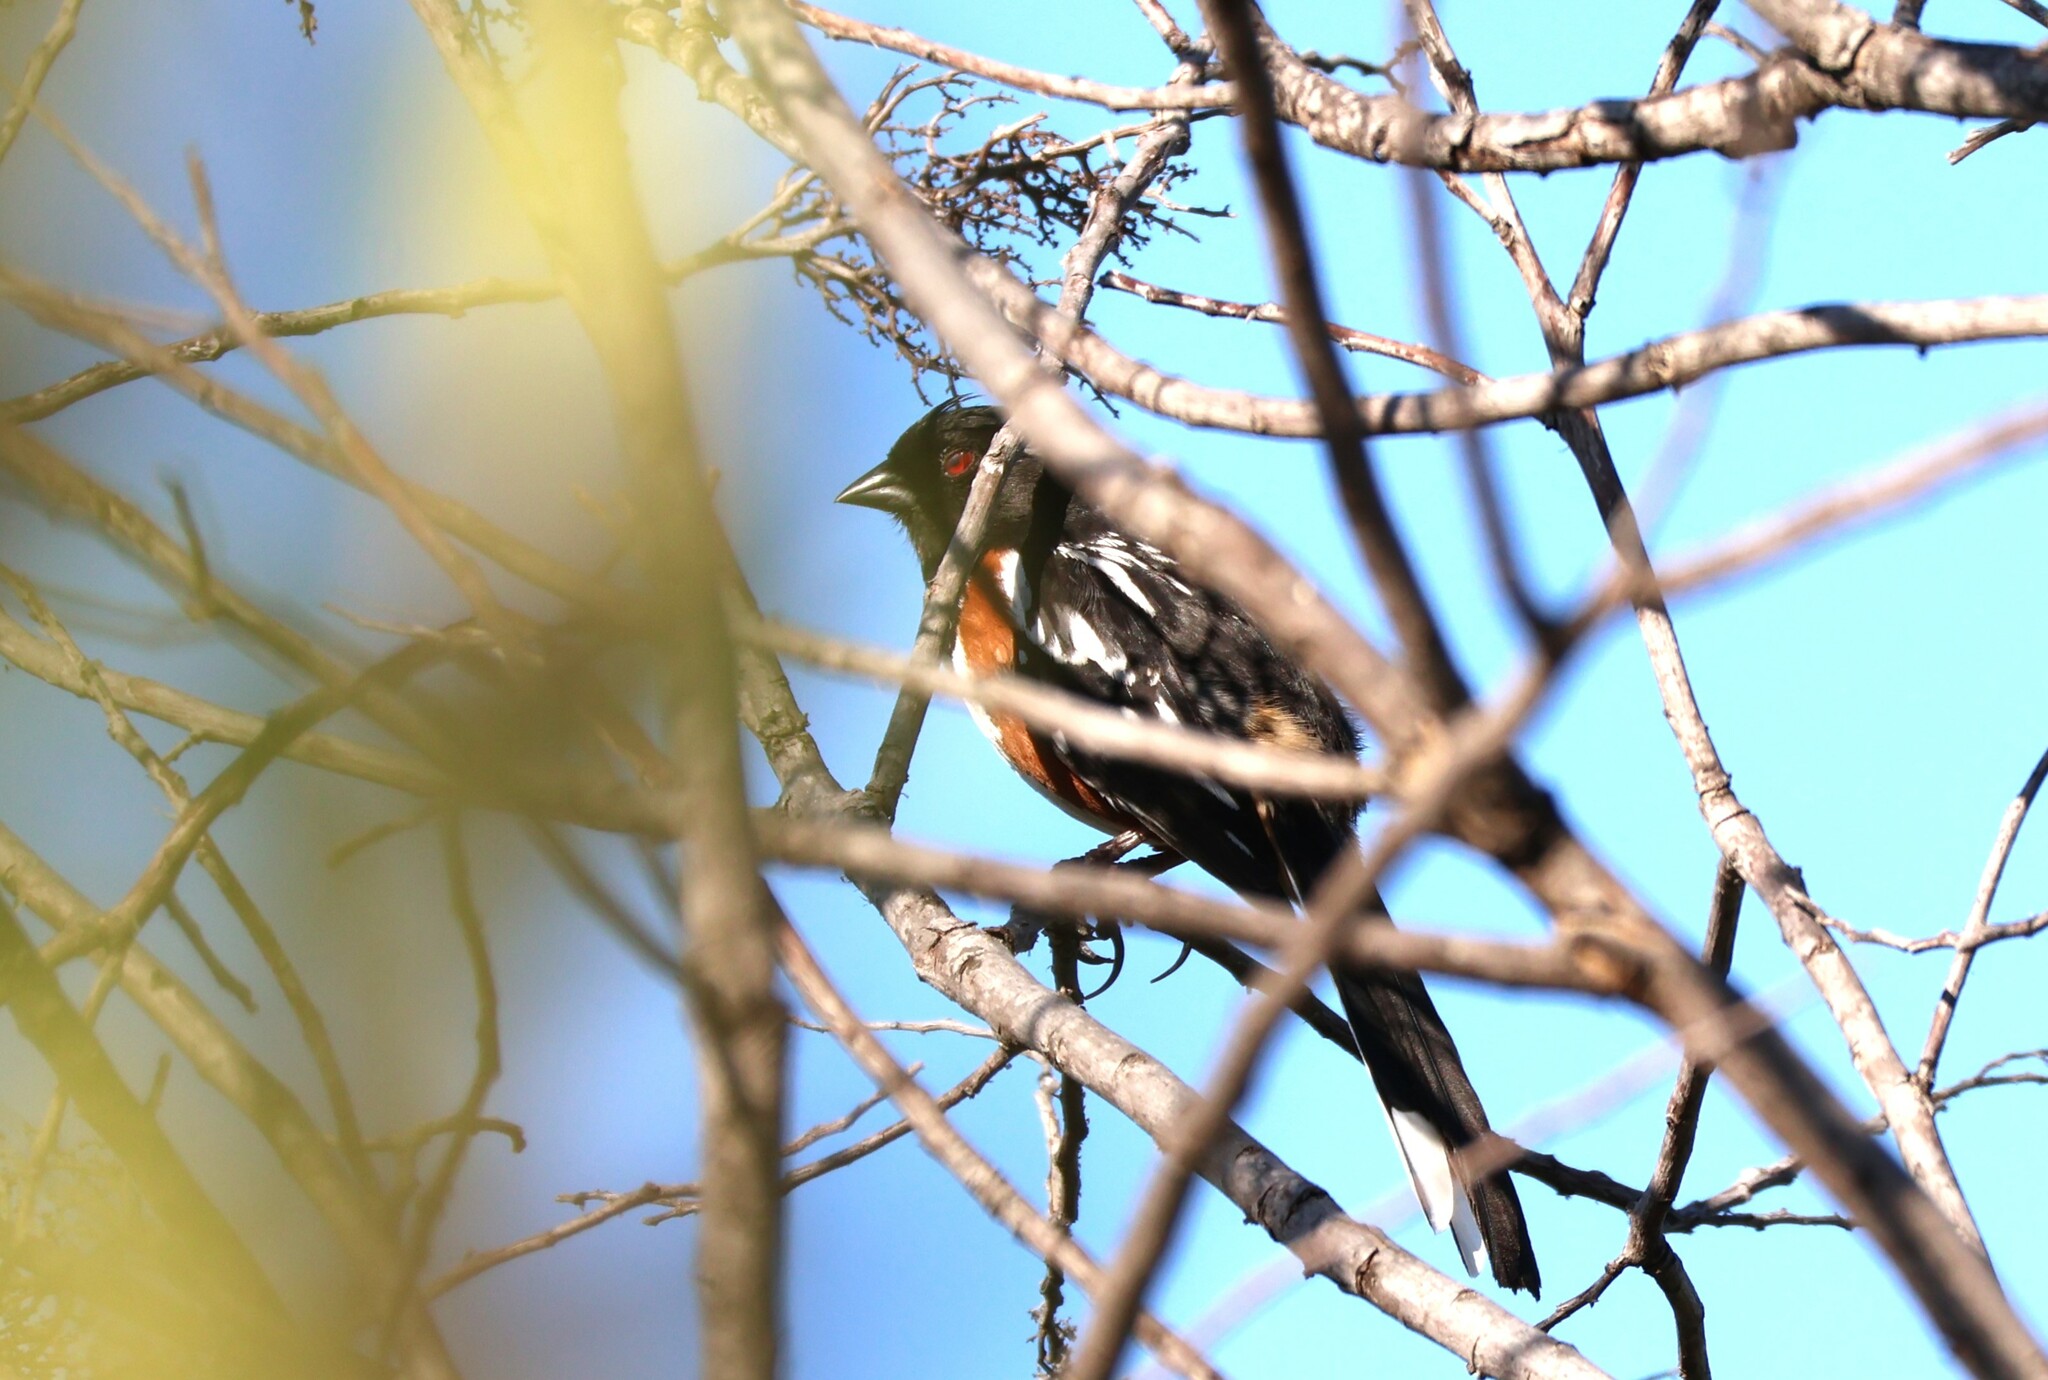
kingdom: Animalia
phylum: Chordata
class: Aves
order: Passeriformes
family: Passerellidae
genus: Pipilo
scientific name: Pipilo maculatus
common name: Spotted towhee
